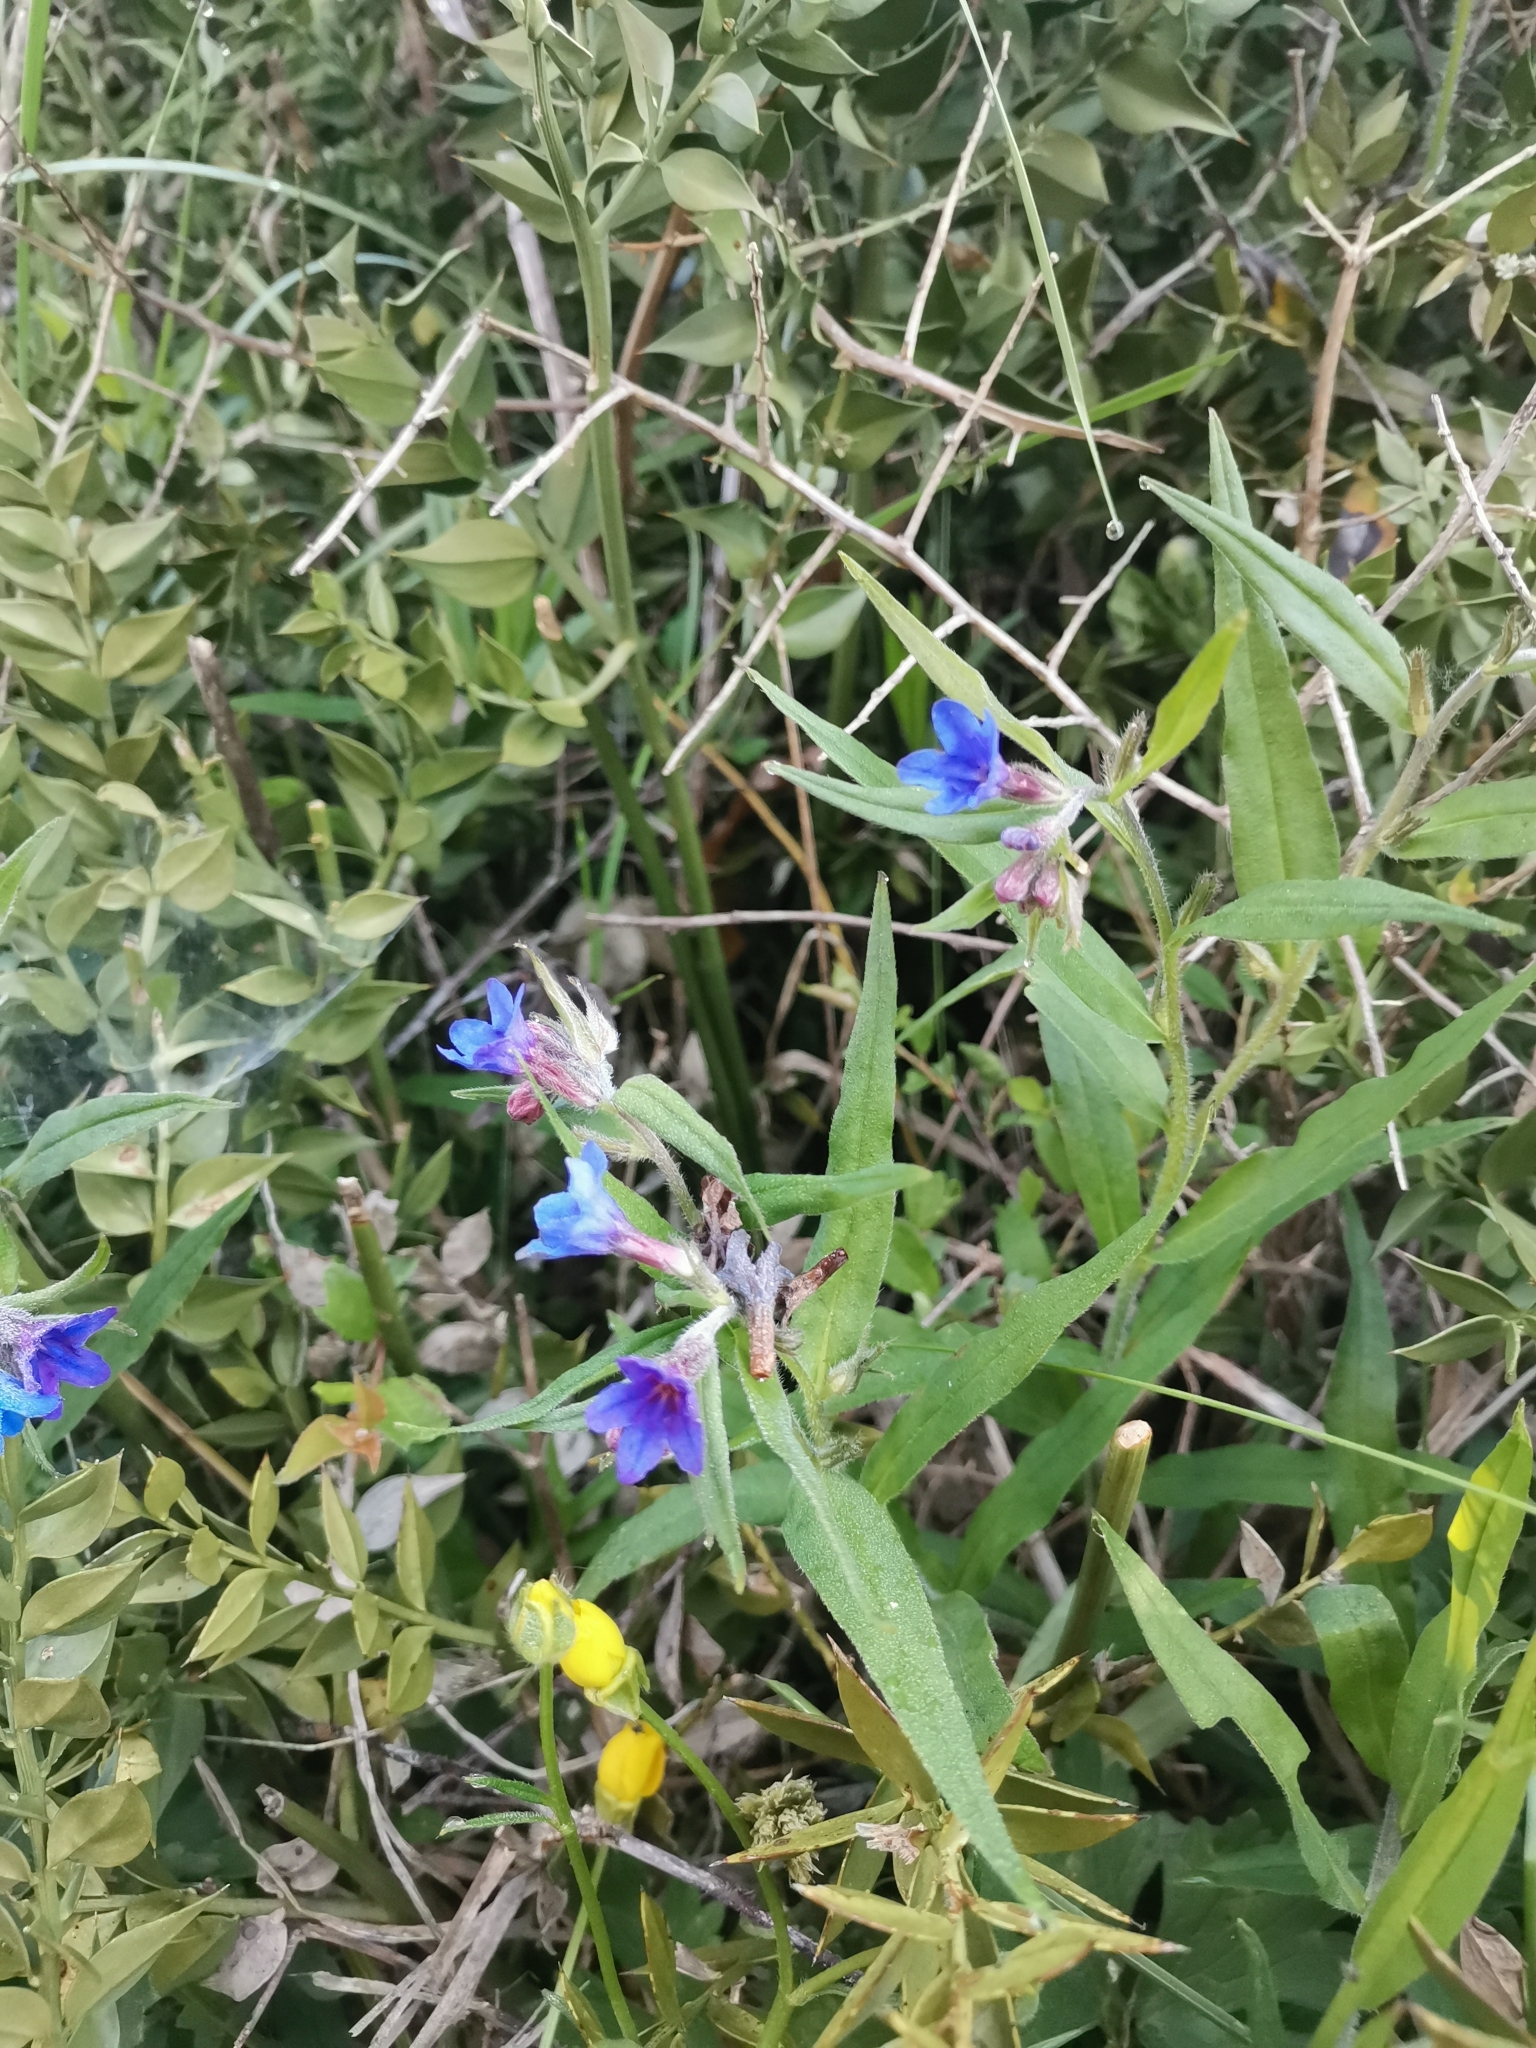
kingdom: Plantae
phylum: Tracheophyta
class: Magnoliopsida
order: Boraginales
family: Boraginaceae
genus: Aegonychon
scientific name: Aegonychon purpurocaeruleum
